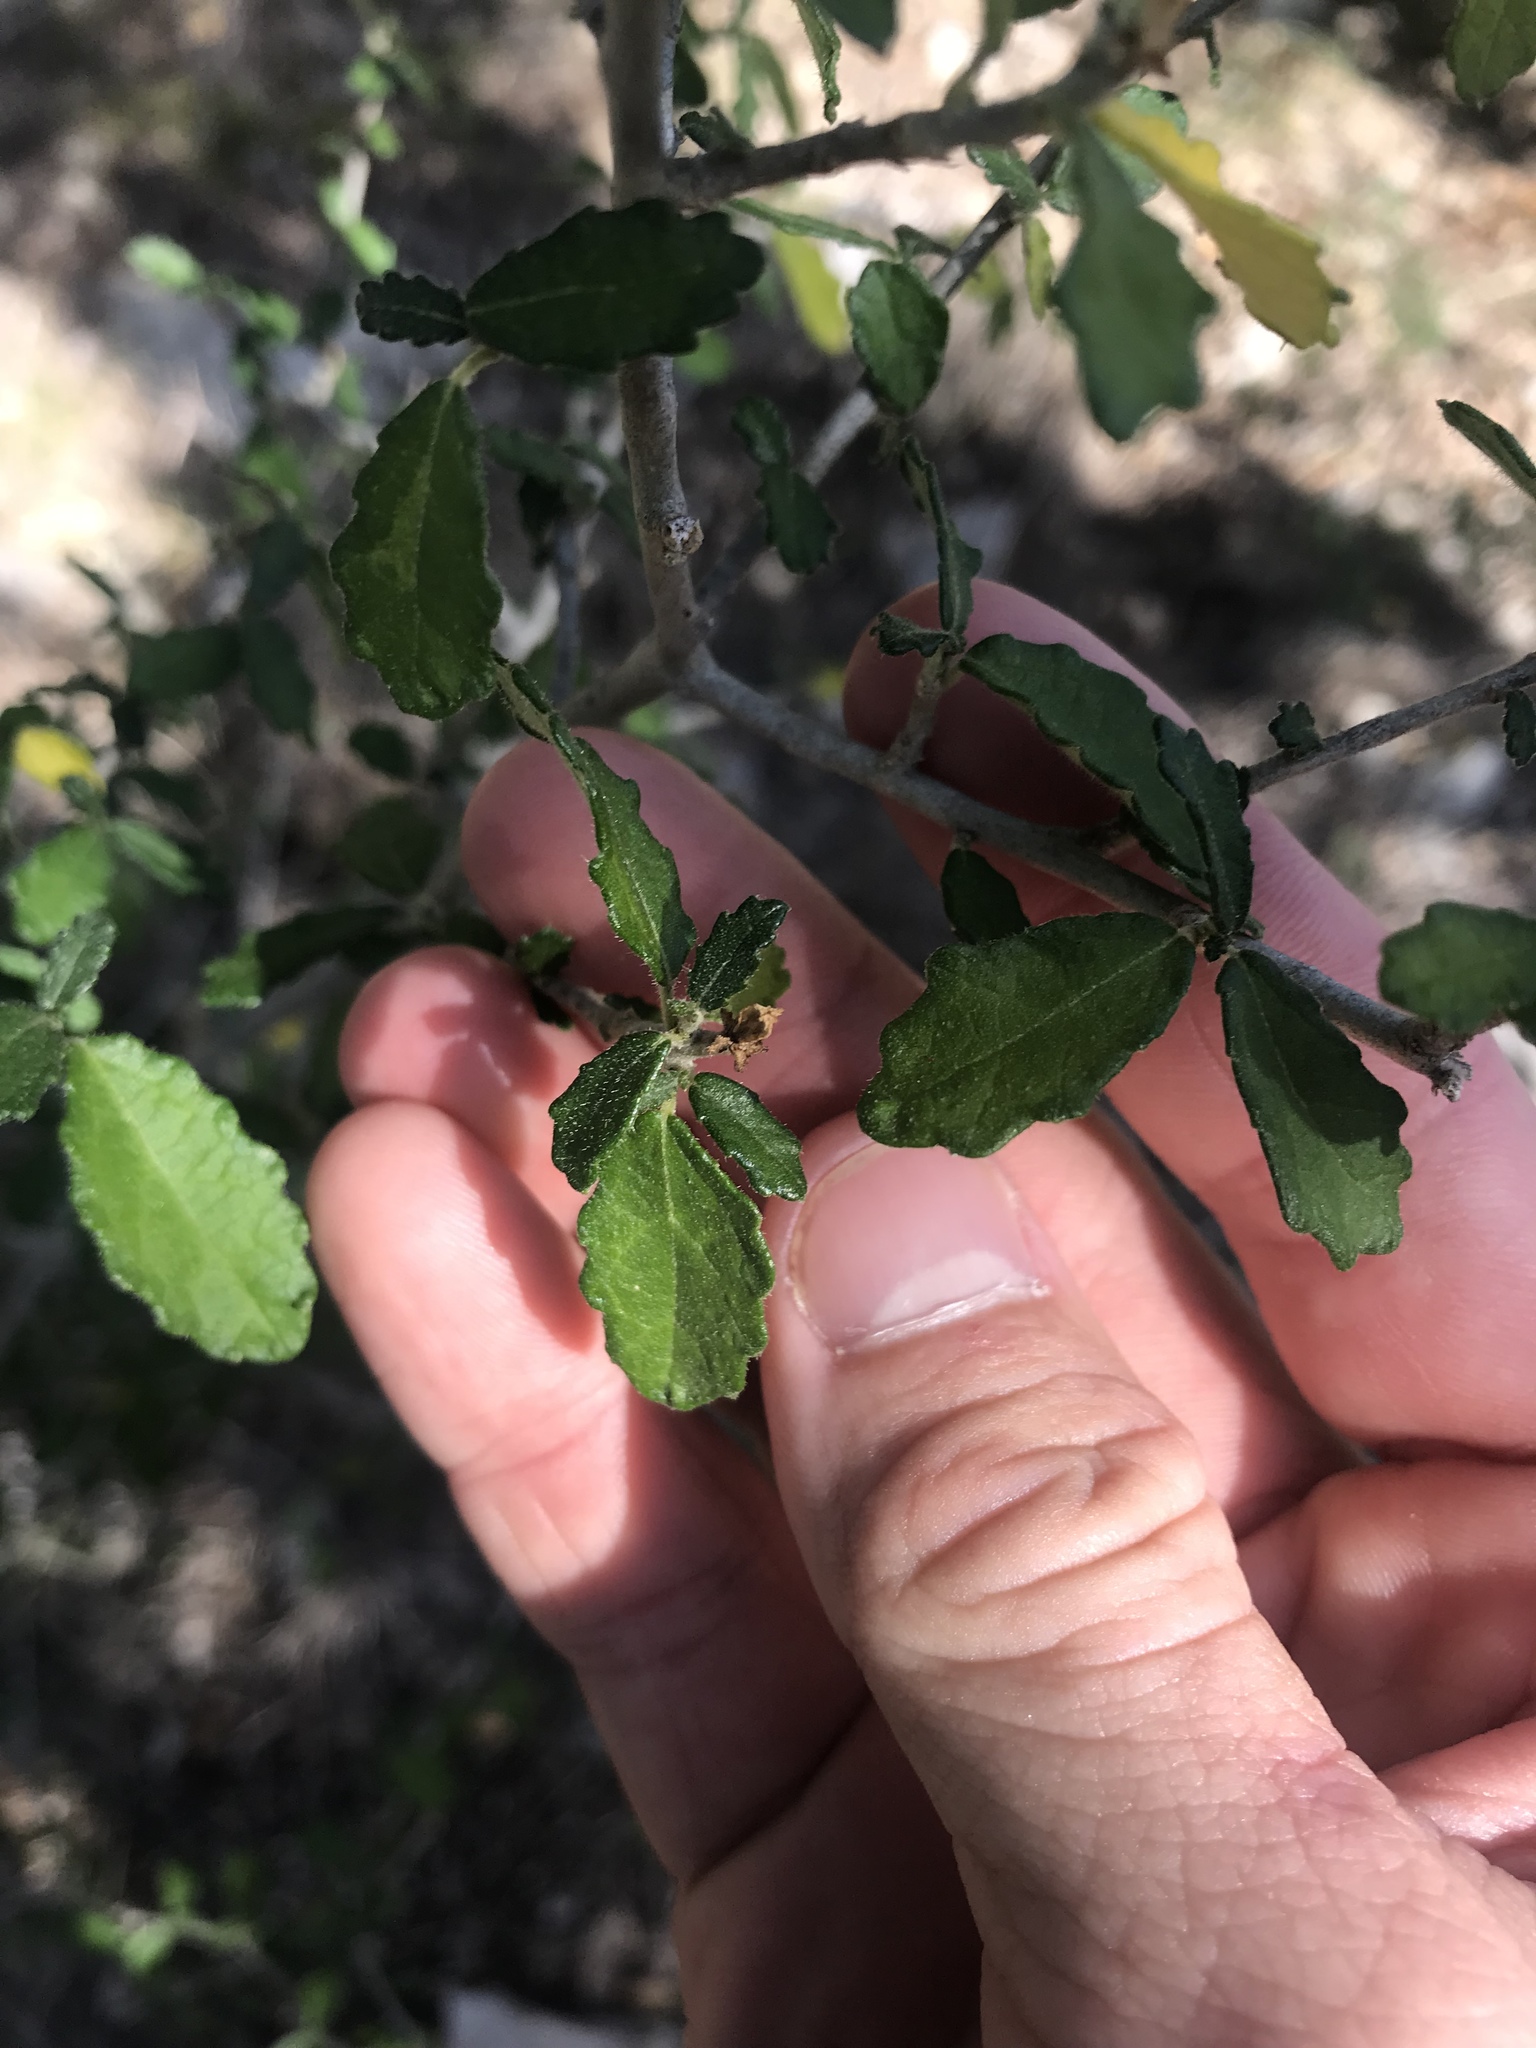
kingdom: Plantae
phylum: Tracheophyta
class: Magnoliopsida
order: Malpighiales
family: Euphorbiaceae
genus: Bernardia
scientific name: Bernardia myricifolia
